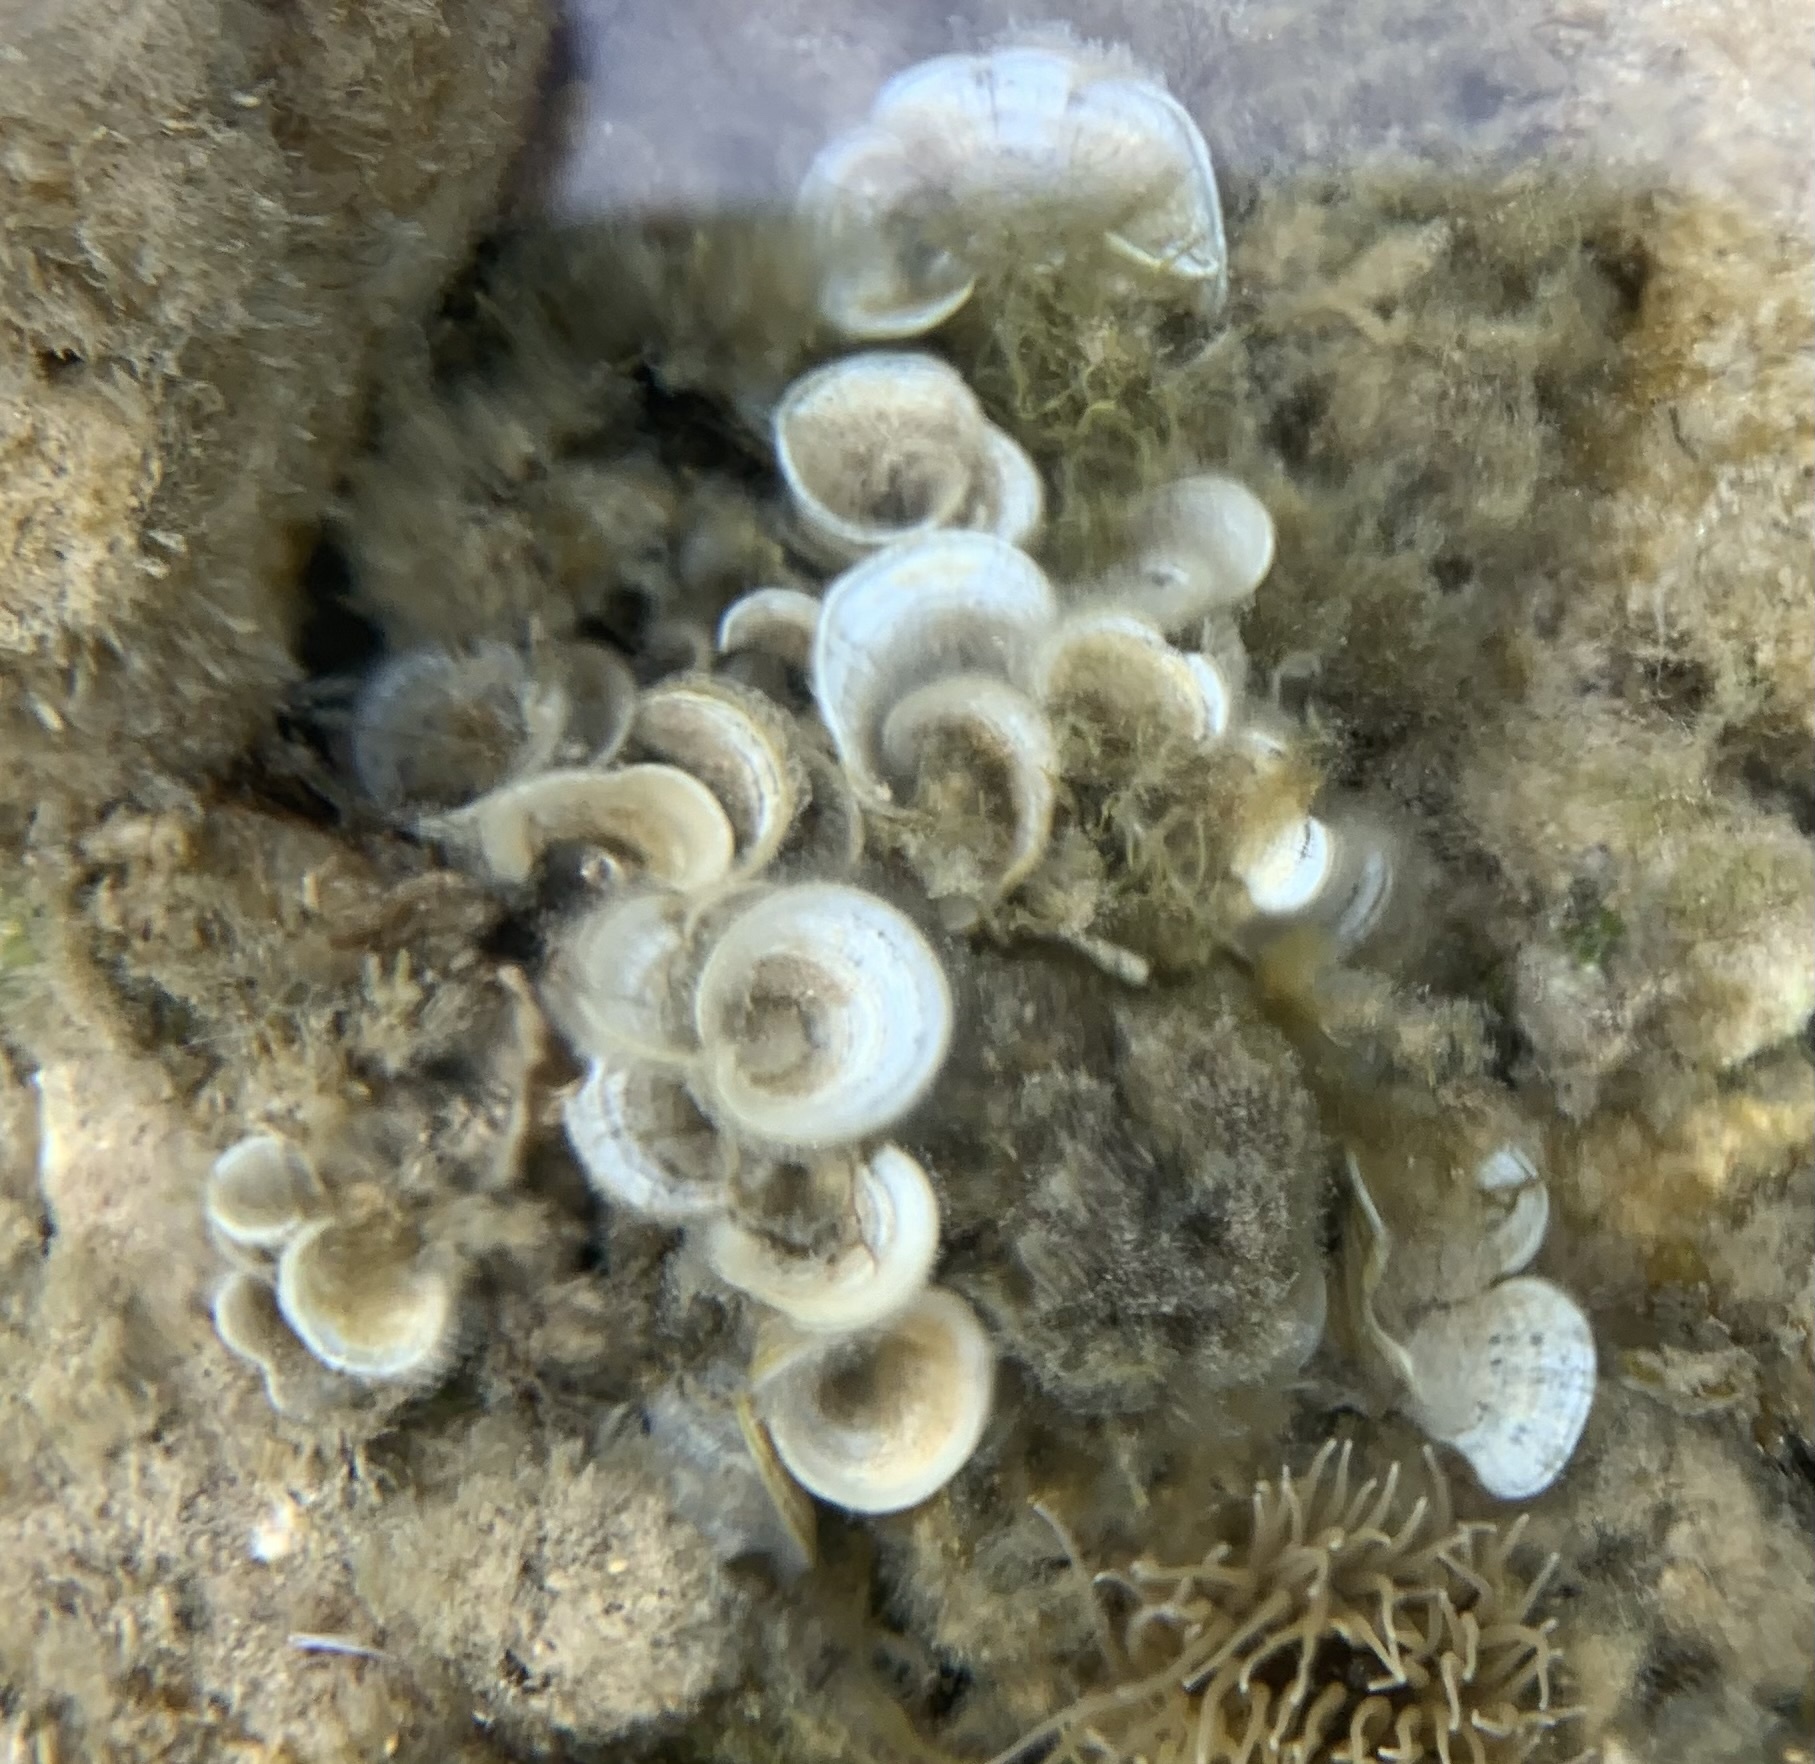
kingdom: Chromista
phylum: Ochrophyta
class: Phaeophyceae
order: Dictyotales
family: Dictyotaceae
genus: Padina
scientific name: Padina
